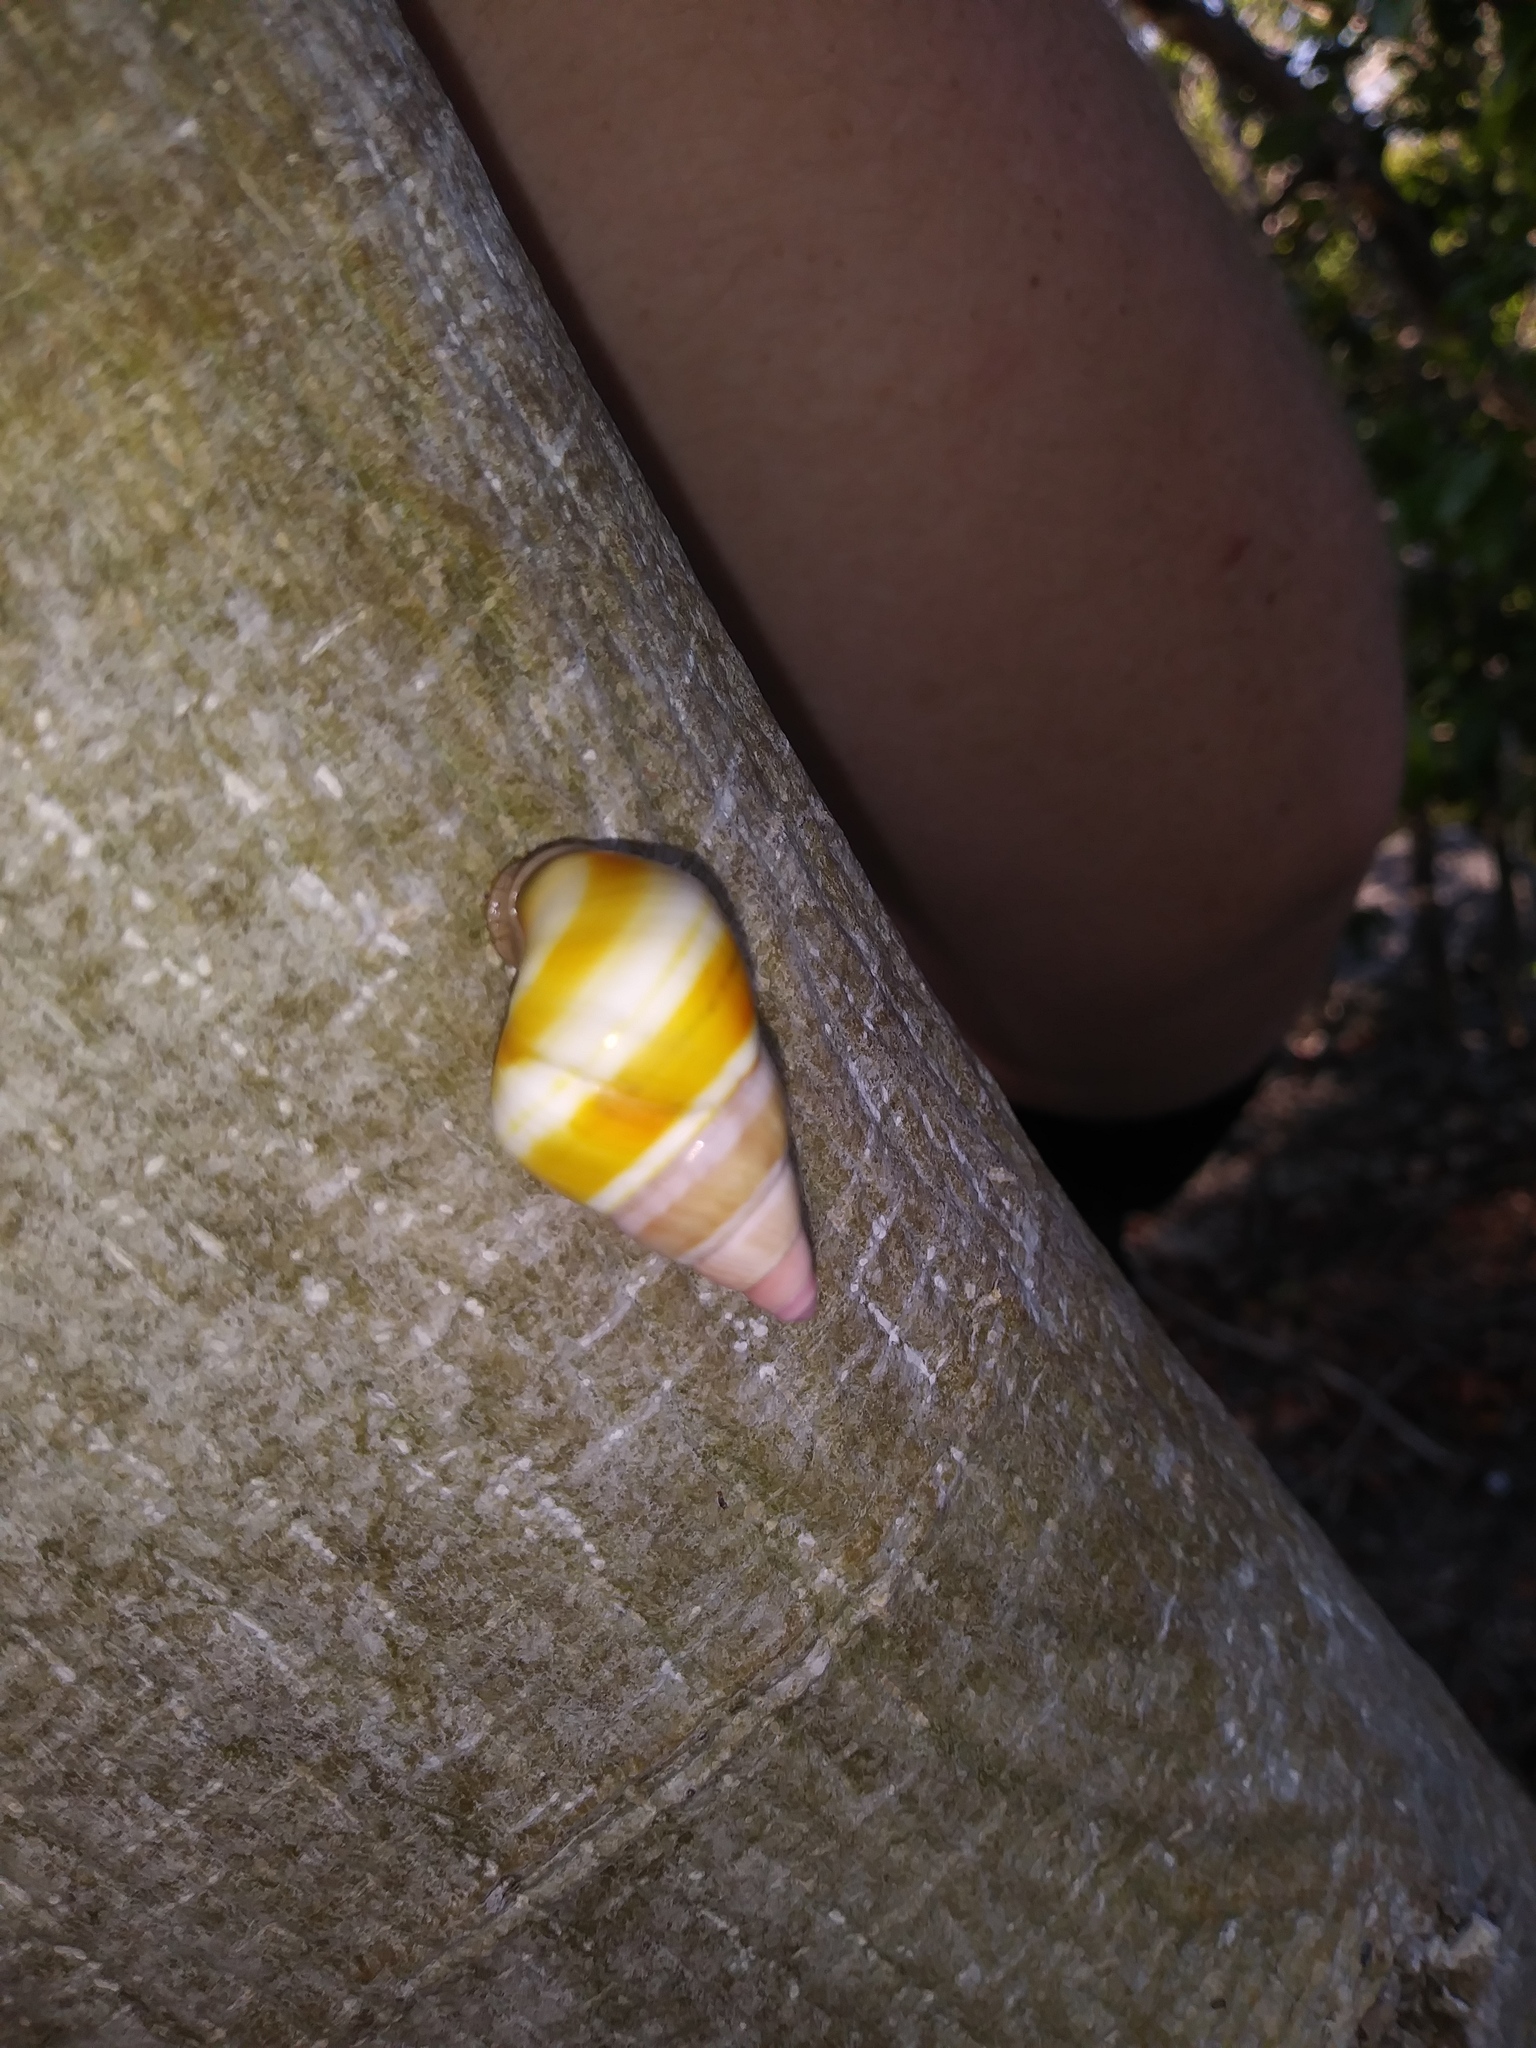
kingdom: Animalia
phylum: Mollusca
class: Gastropoda
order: Stylommatophora
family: Orthalicidae
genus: Liguus
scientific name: Liguus fasciatus
